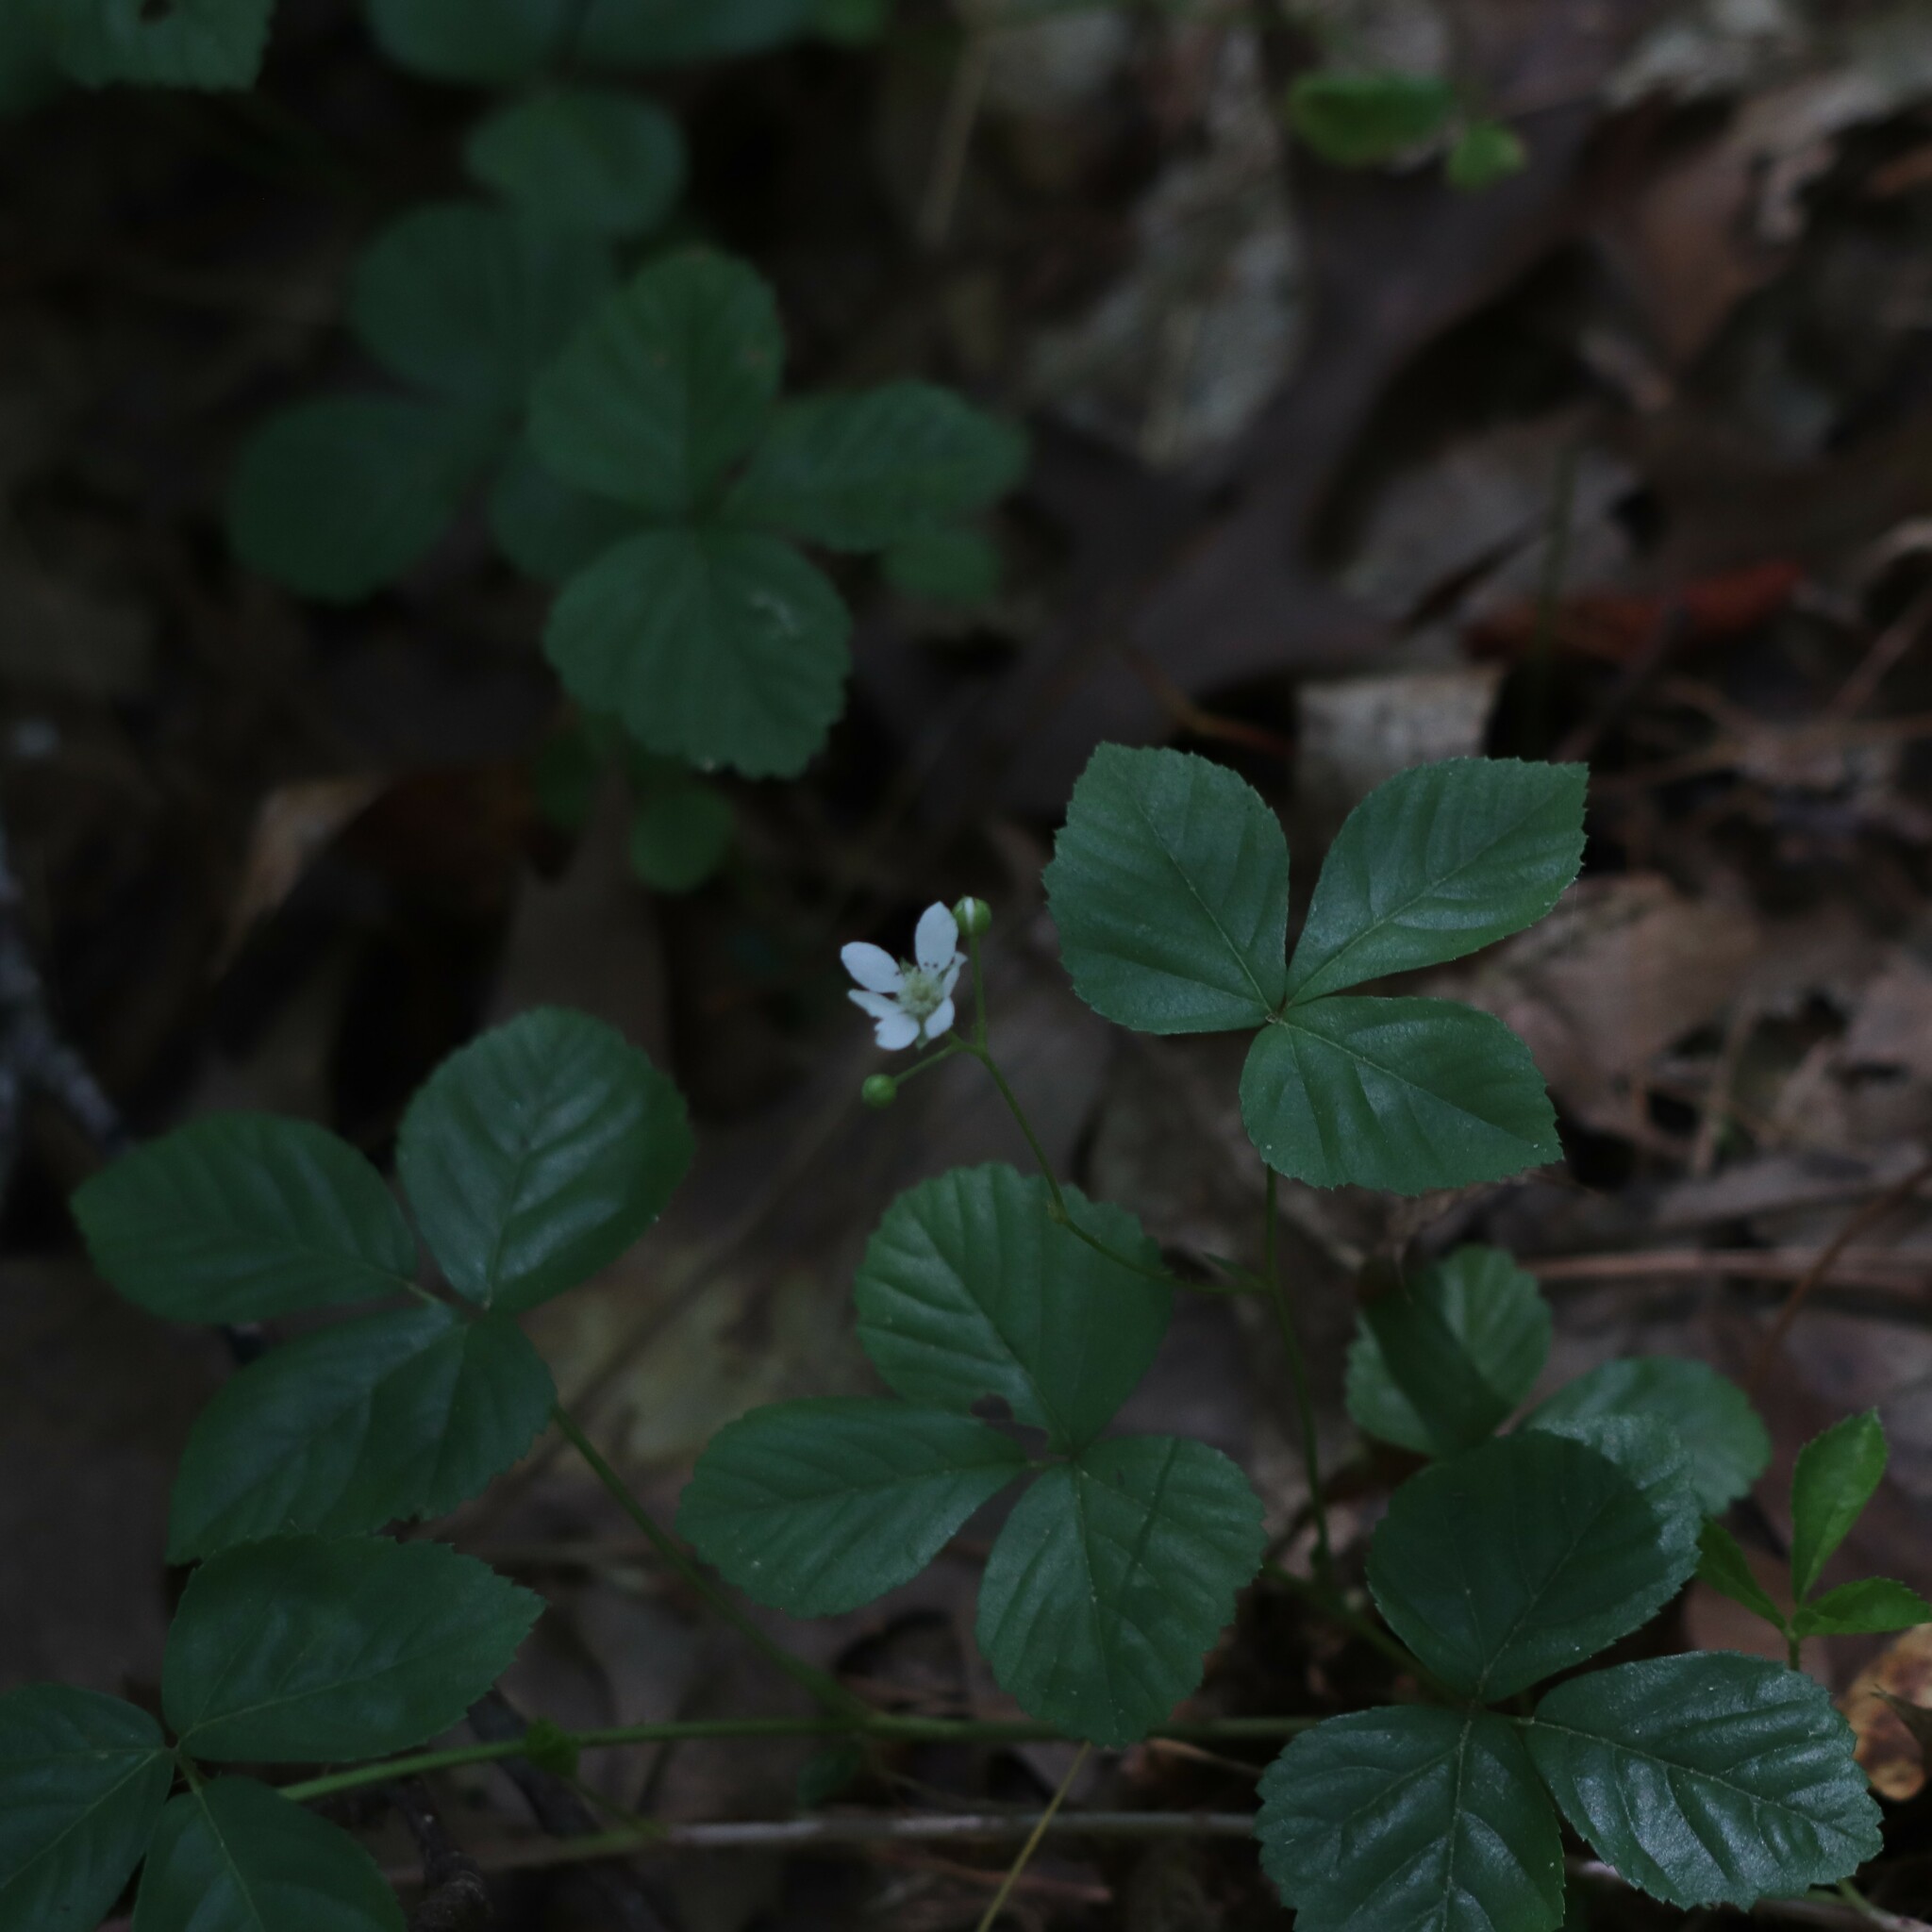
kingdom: Plantae
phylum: Tracheophyta
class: Magnoliopsida
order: Rosales
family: Rosaceae
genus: Rubus
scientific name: Rubus hispidus
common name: Running blackberry
